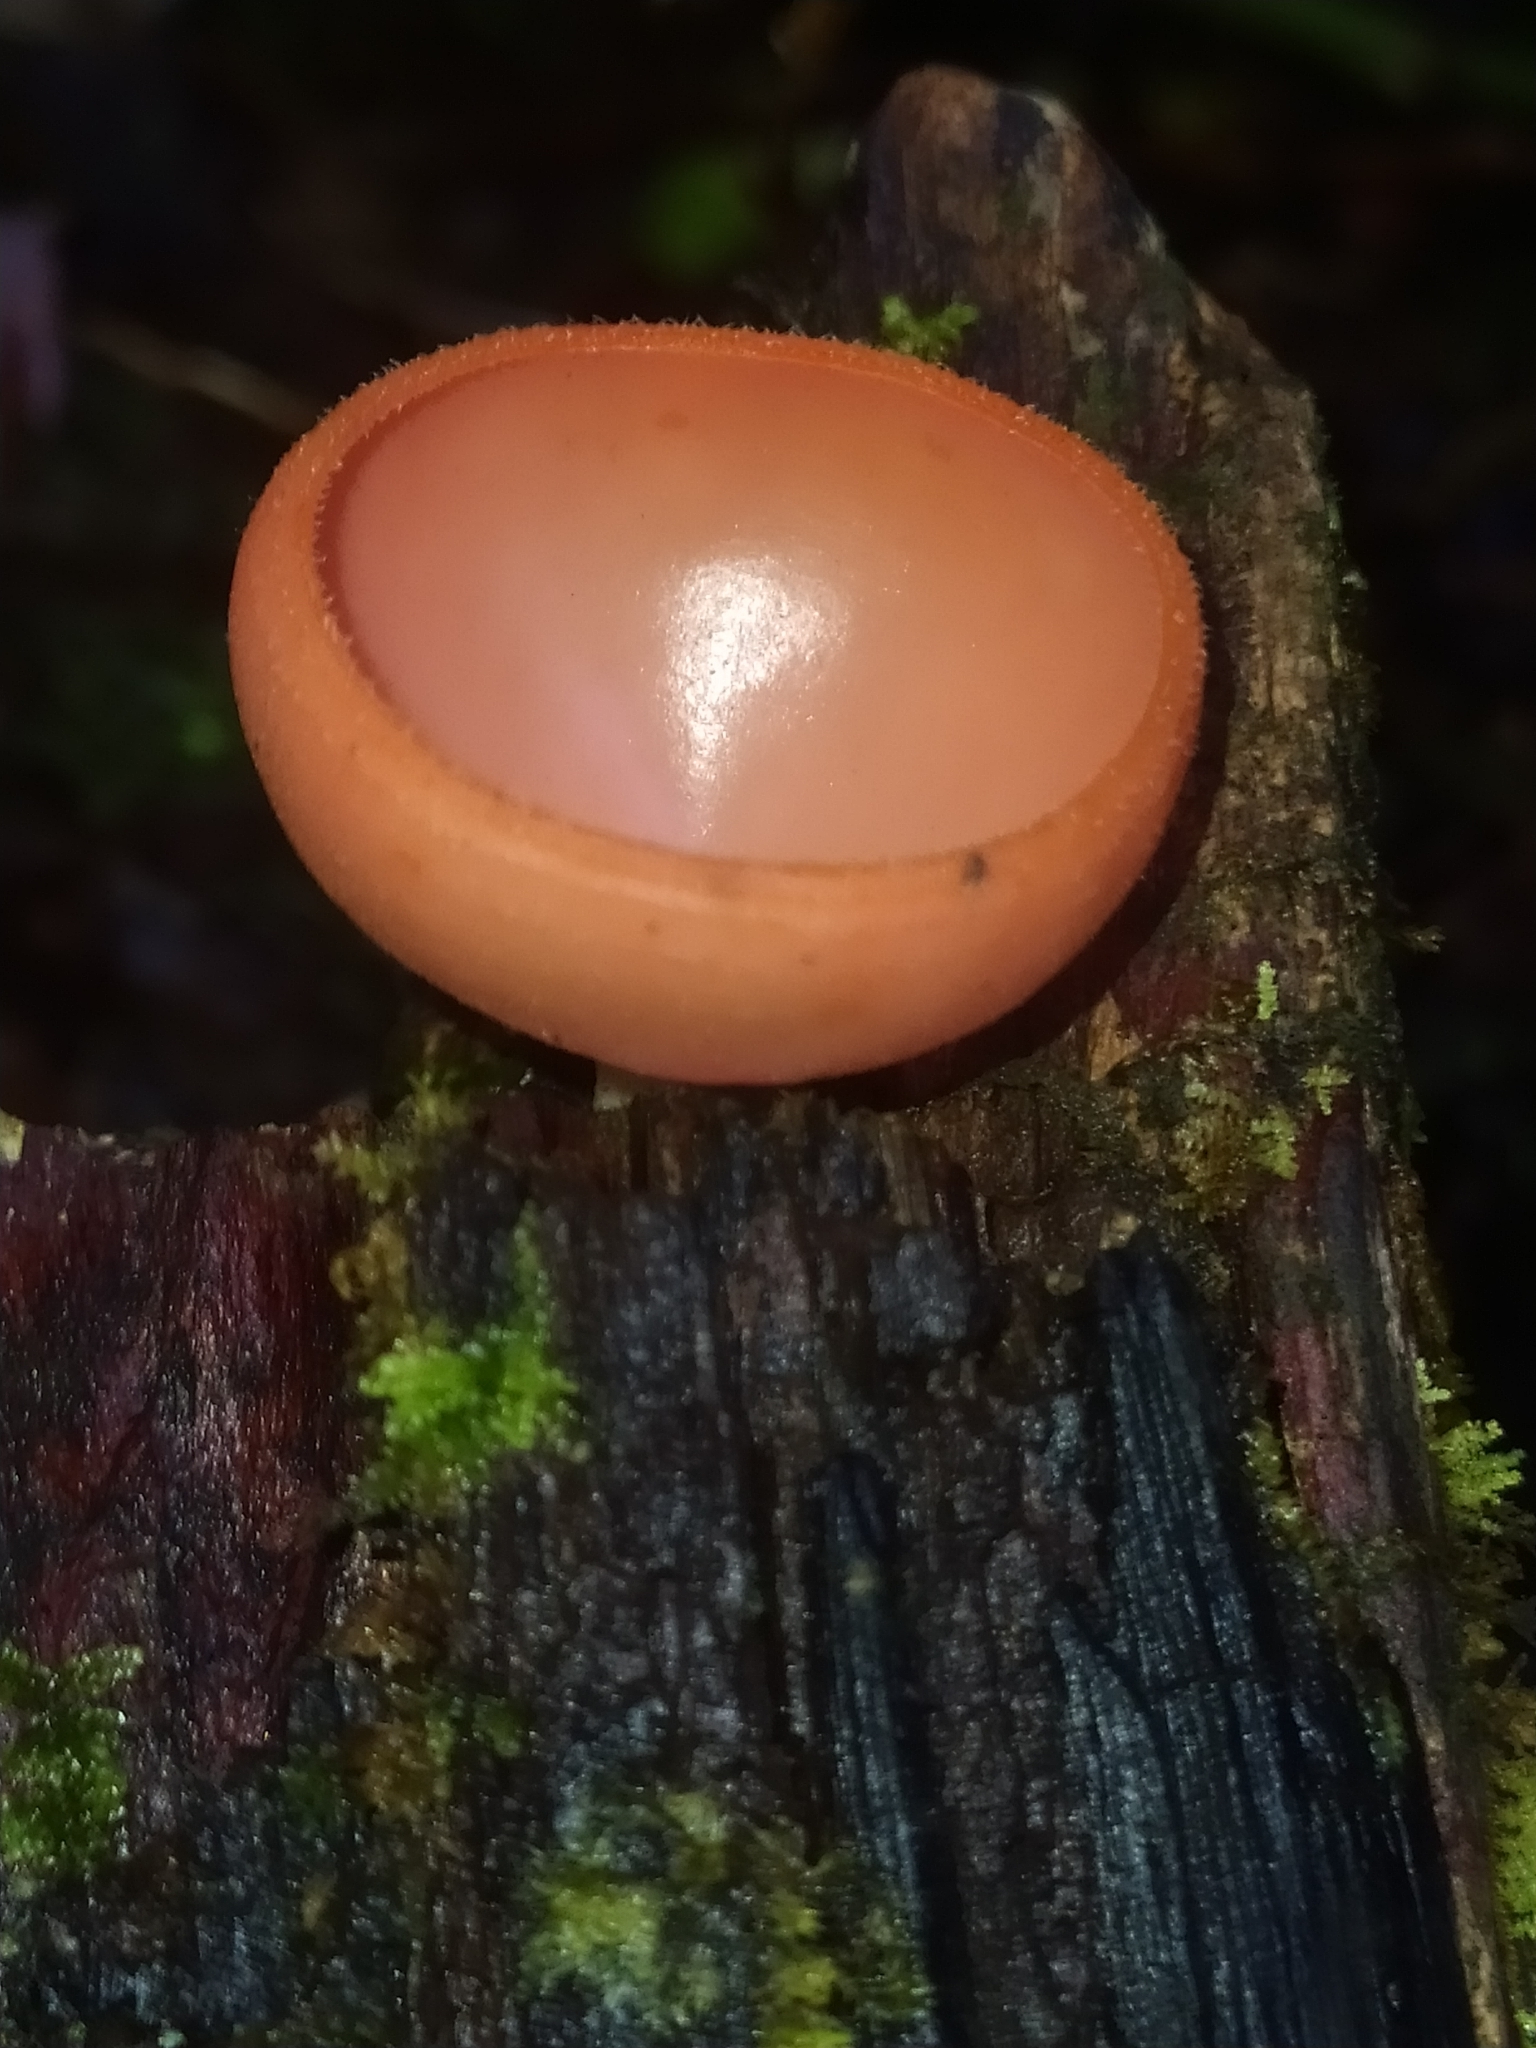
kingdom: Fungi
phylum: Ascomycota
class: Pezizomycetes
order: Pezizales
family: Sarcoscyphaceae
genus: Cookeina
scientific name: Cookeina speciosa
